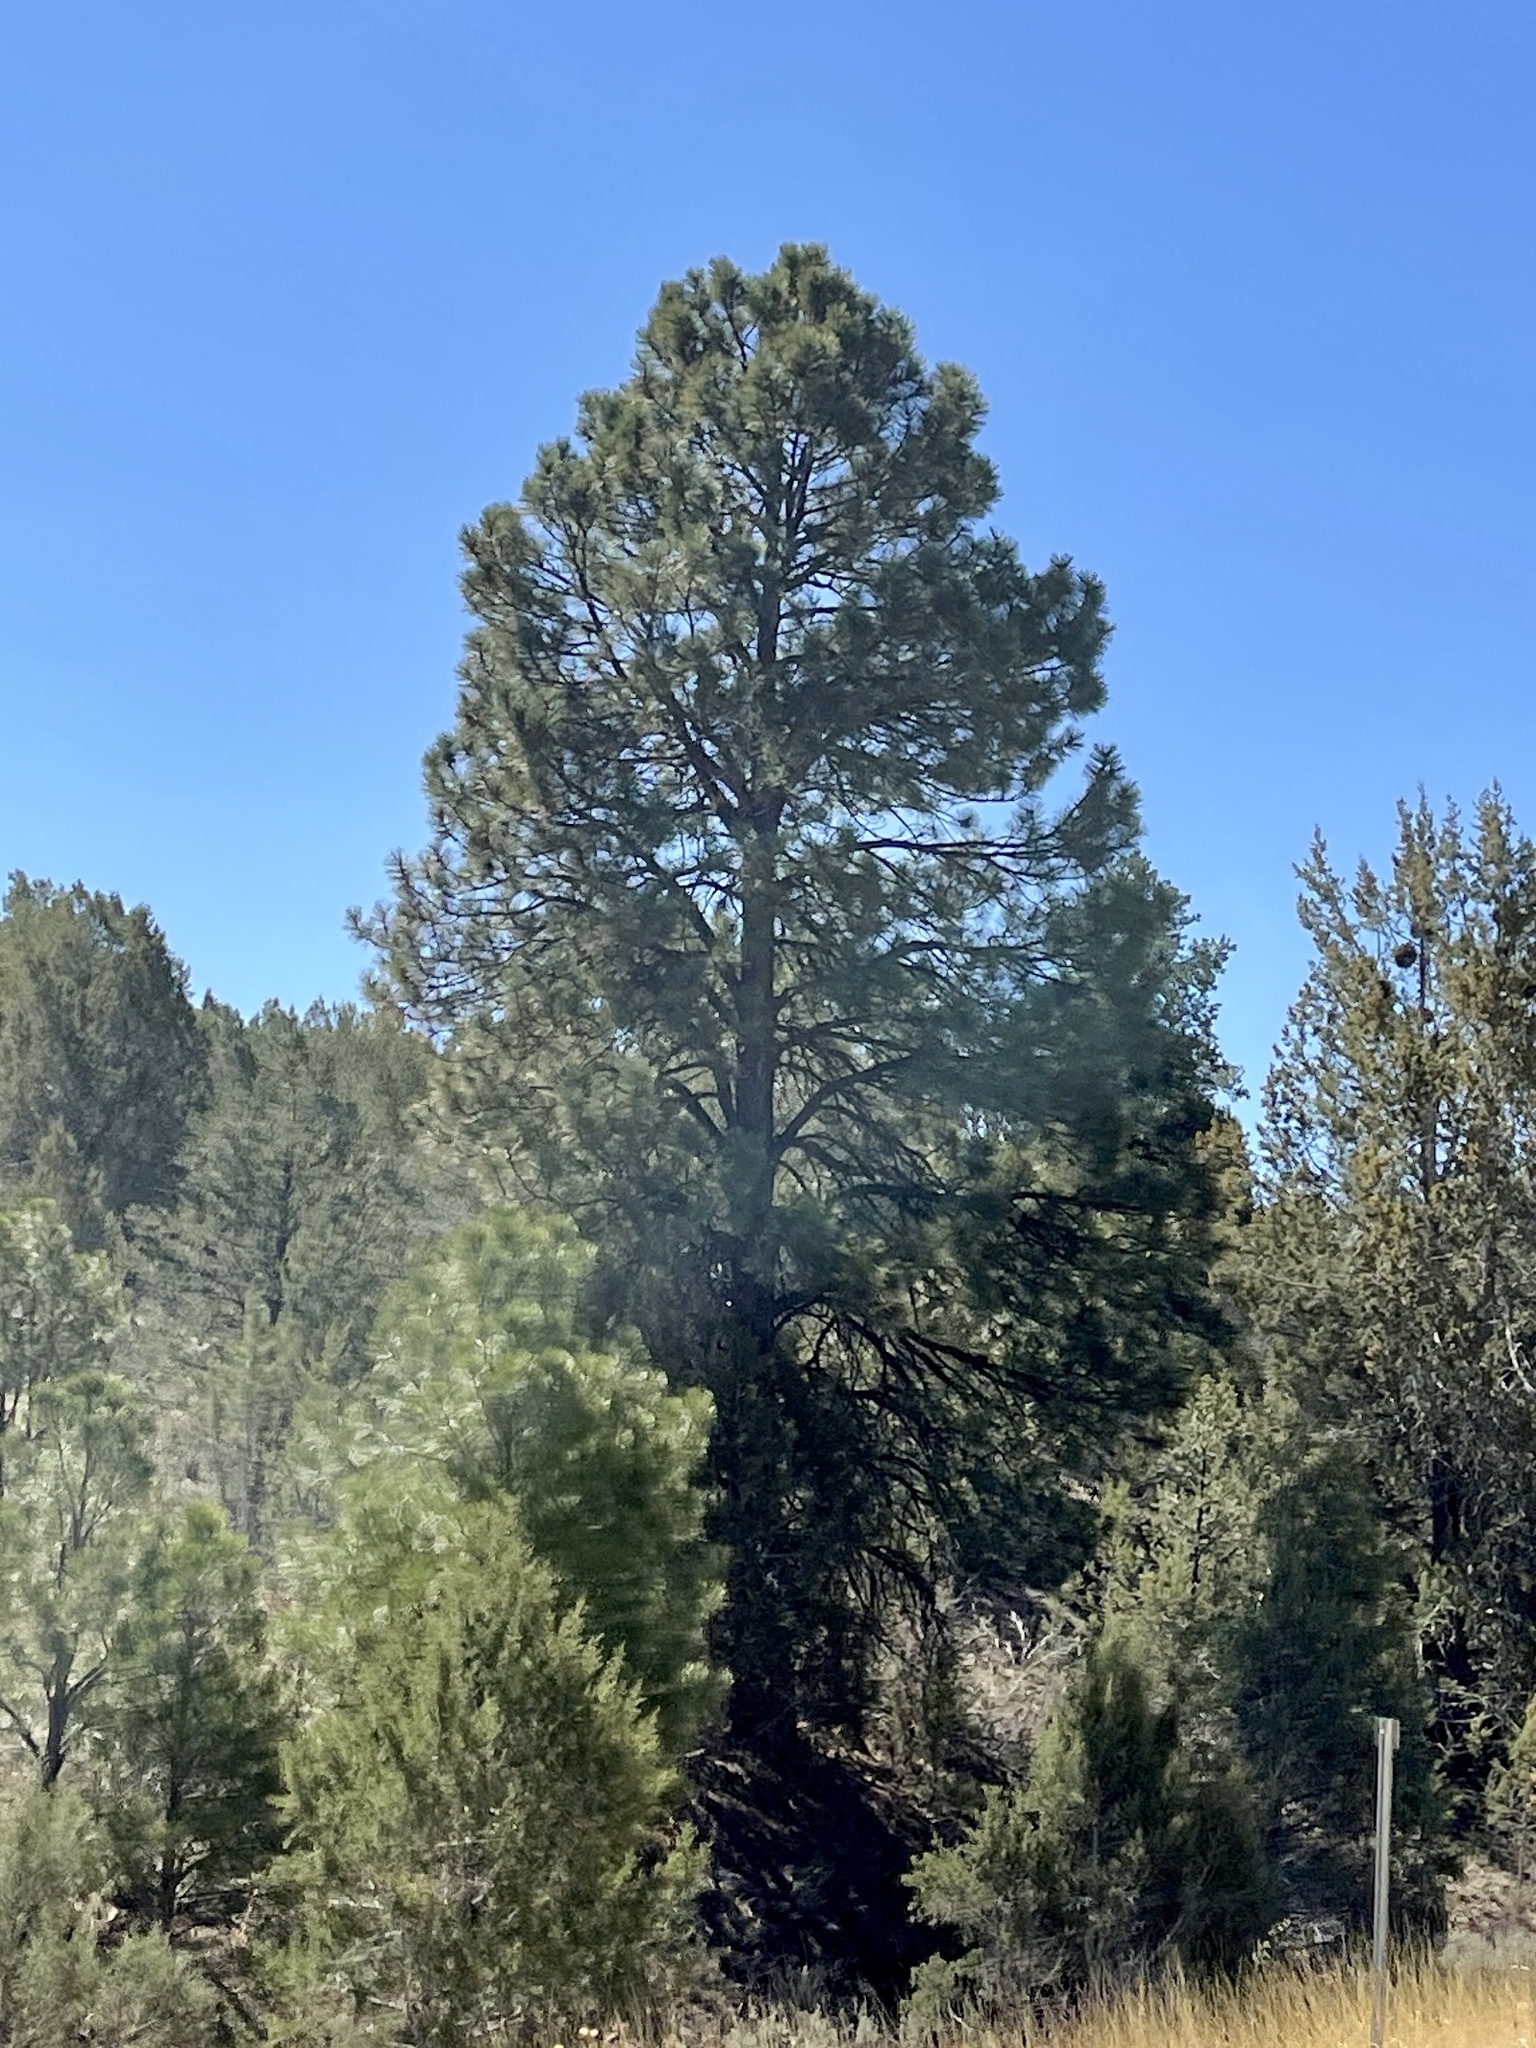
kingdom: Plantae
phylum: Tracheophyta
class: Pinopsida
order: Pinales
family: Pinaceae
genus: Pinus
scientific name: Pinus ponderosa
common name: Western yellow-pine
